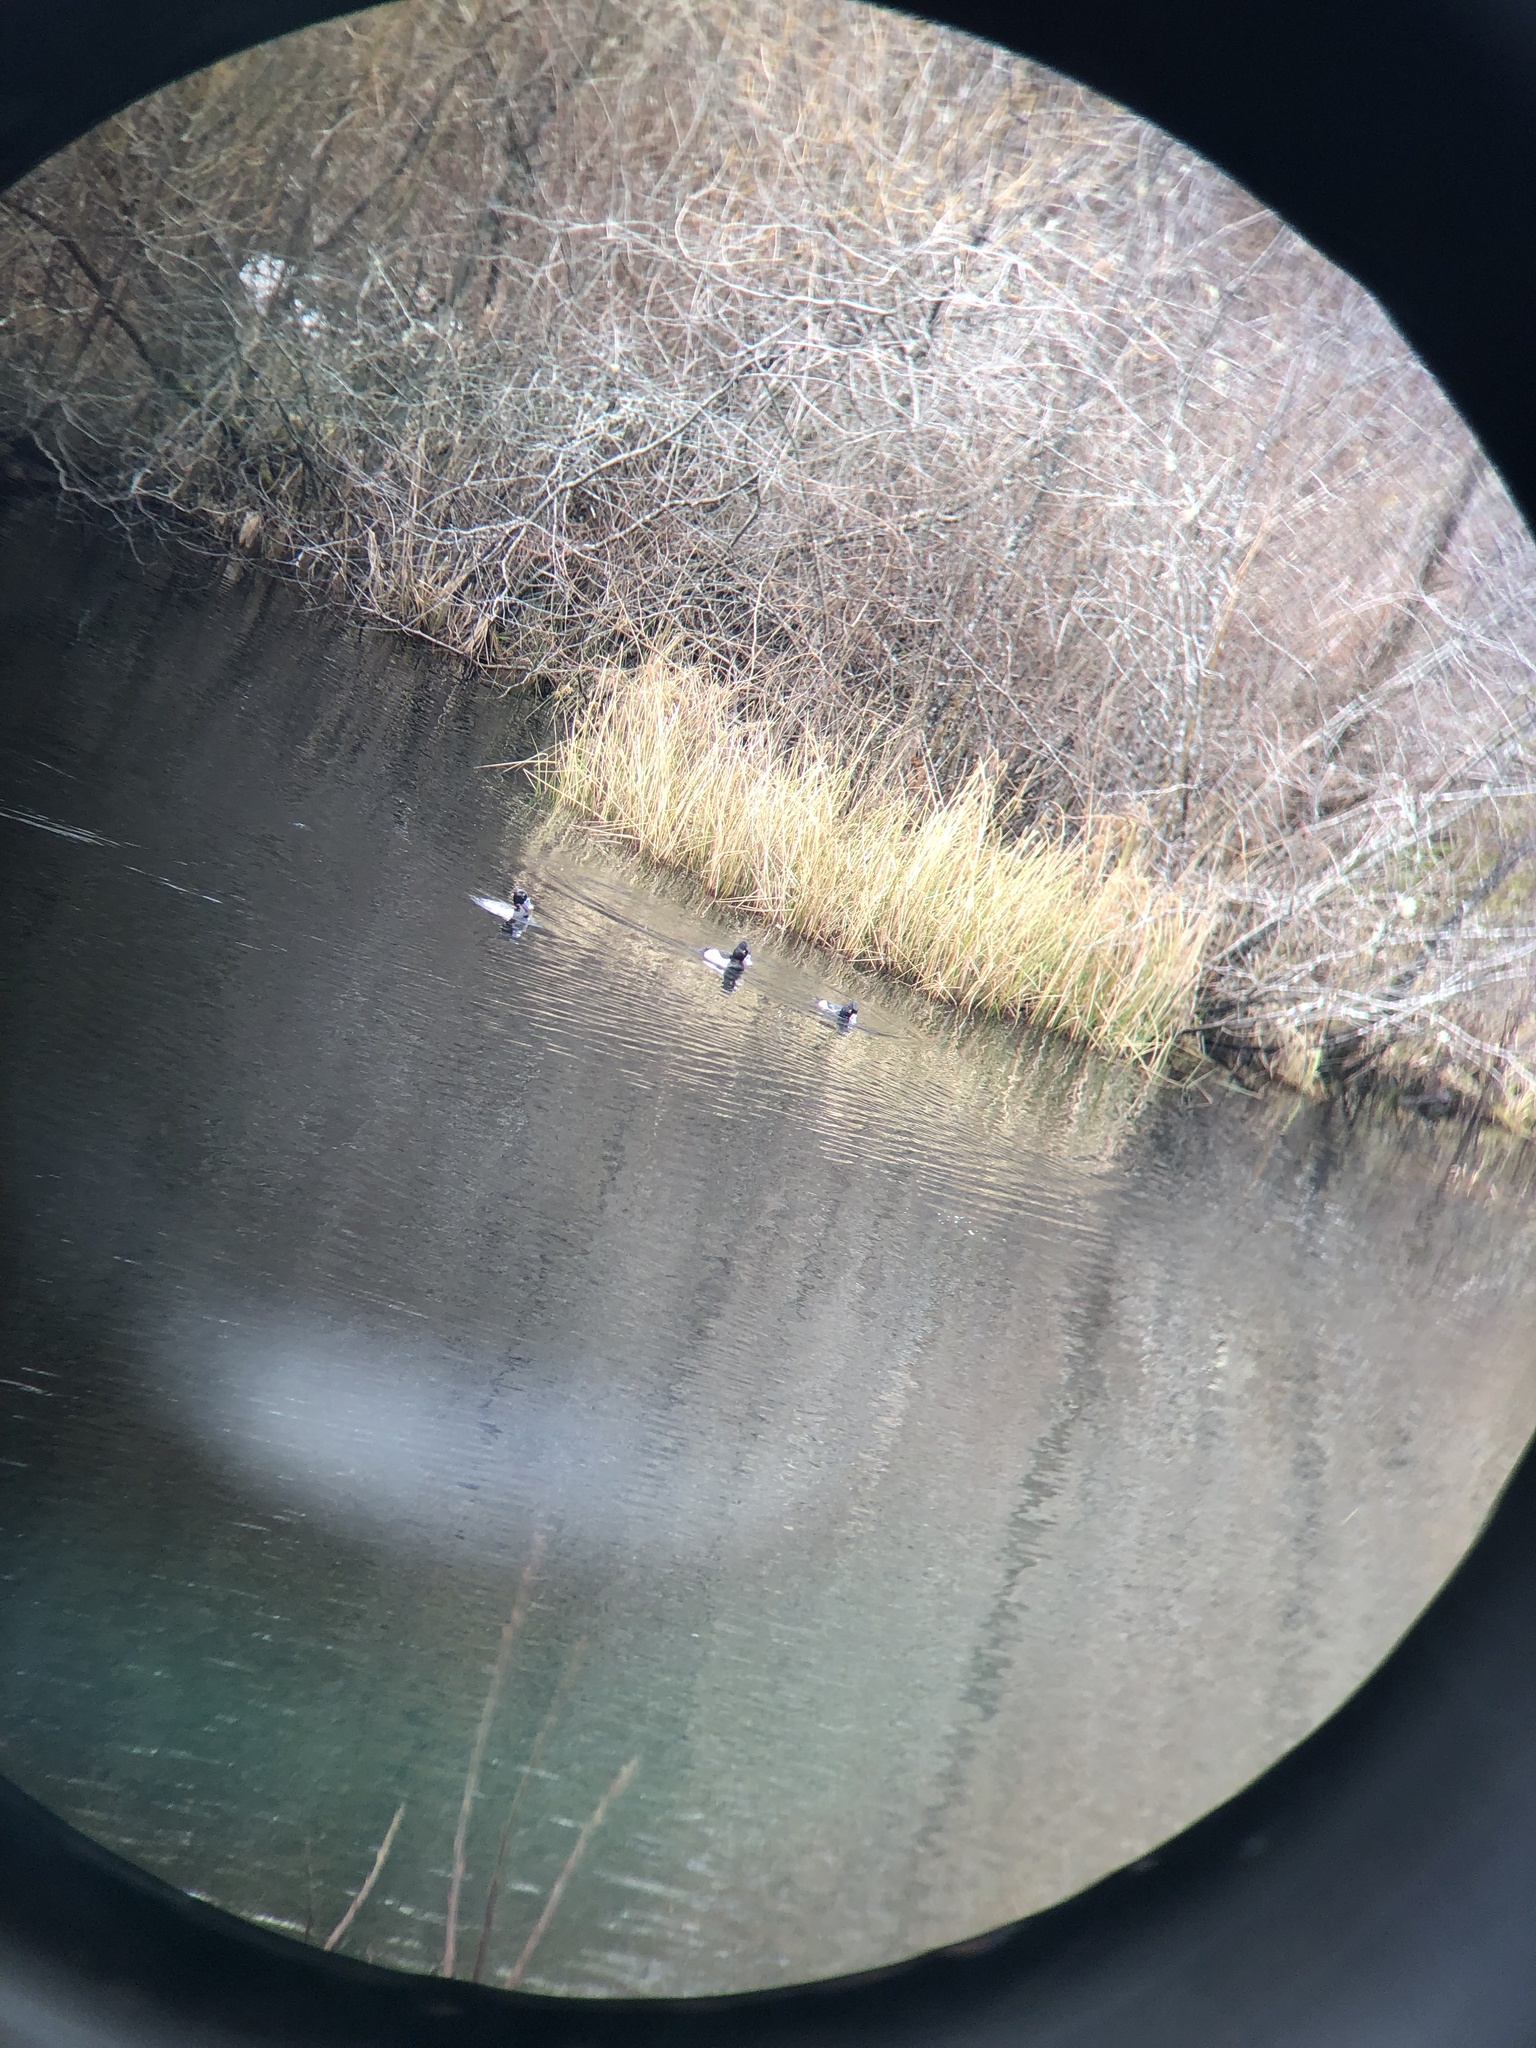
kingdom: Animalia
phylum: Chordata
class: Aves
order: Anseriformes
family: Anatidae
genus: Aythya
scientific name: Aythya collaris
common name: Ring-necked duck
